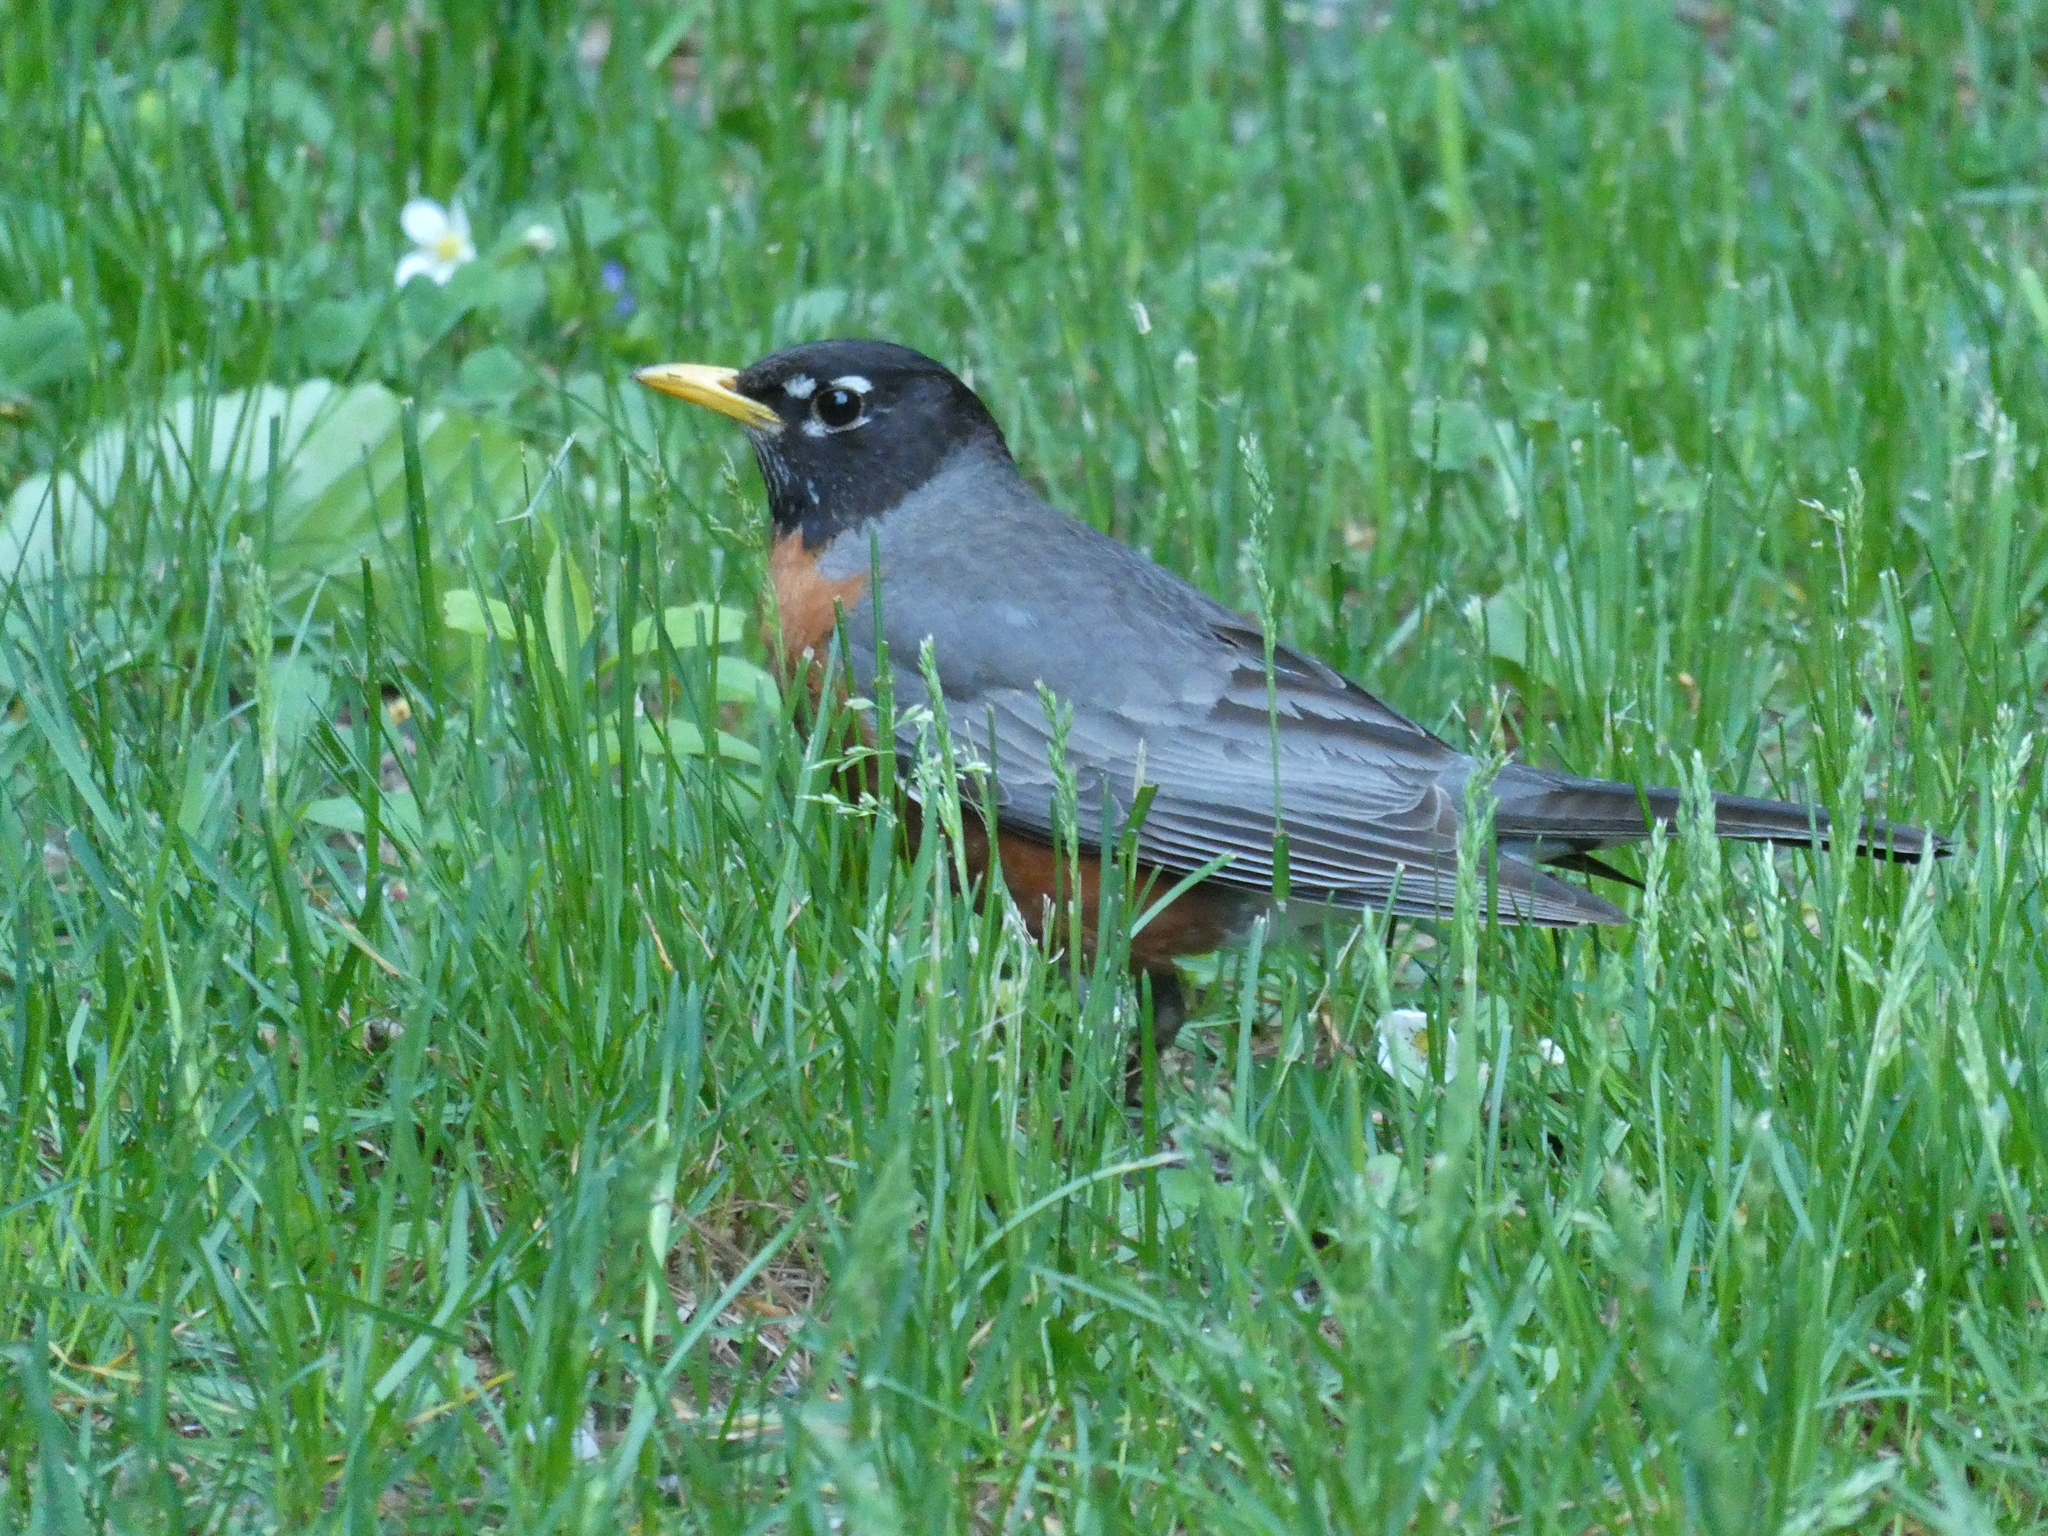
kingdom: Animalia
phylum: Chordata
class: Aves
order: Passeriformes
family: Turdidae
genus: Turdus
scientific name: Turdus migratorius
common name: American robin
